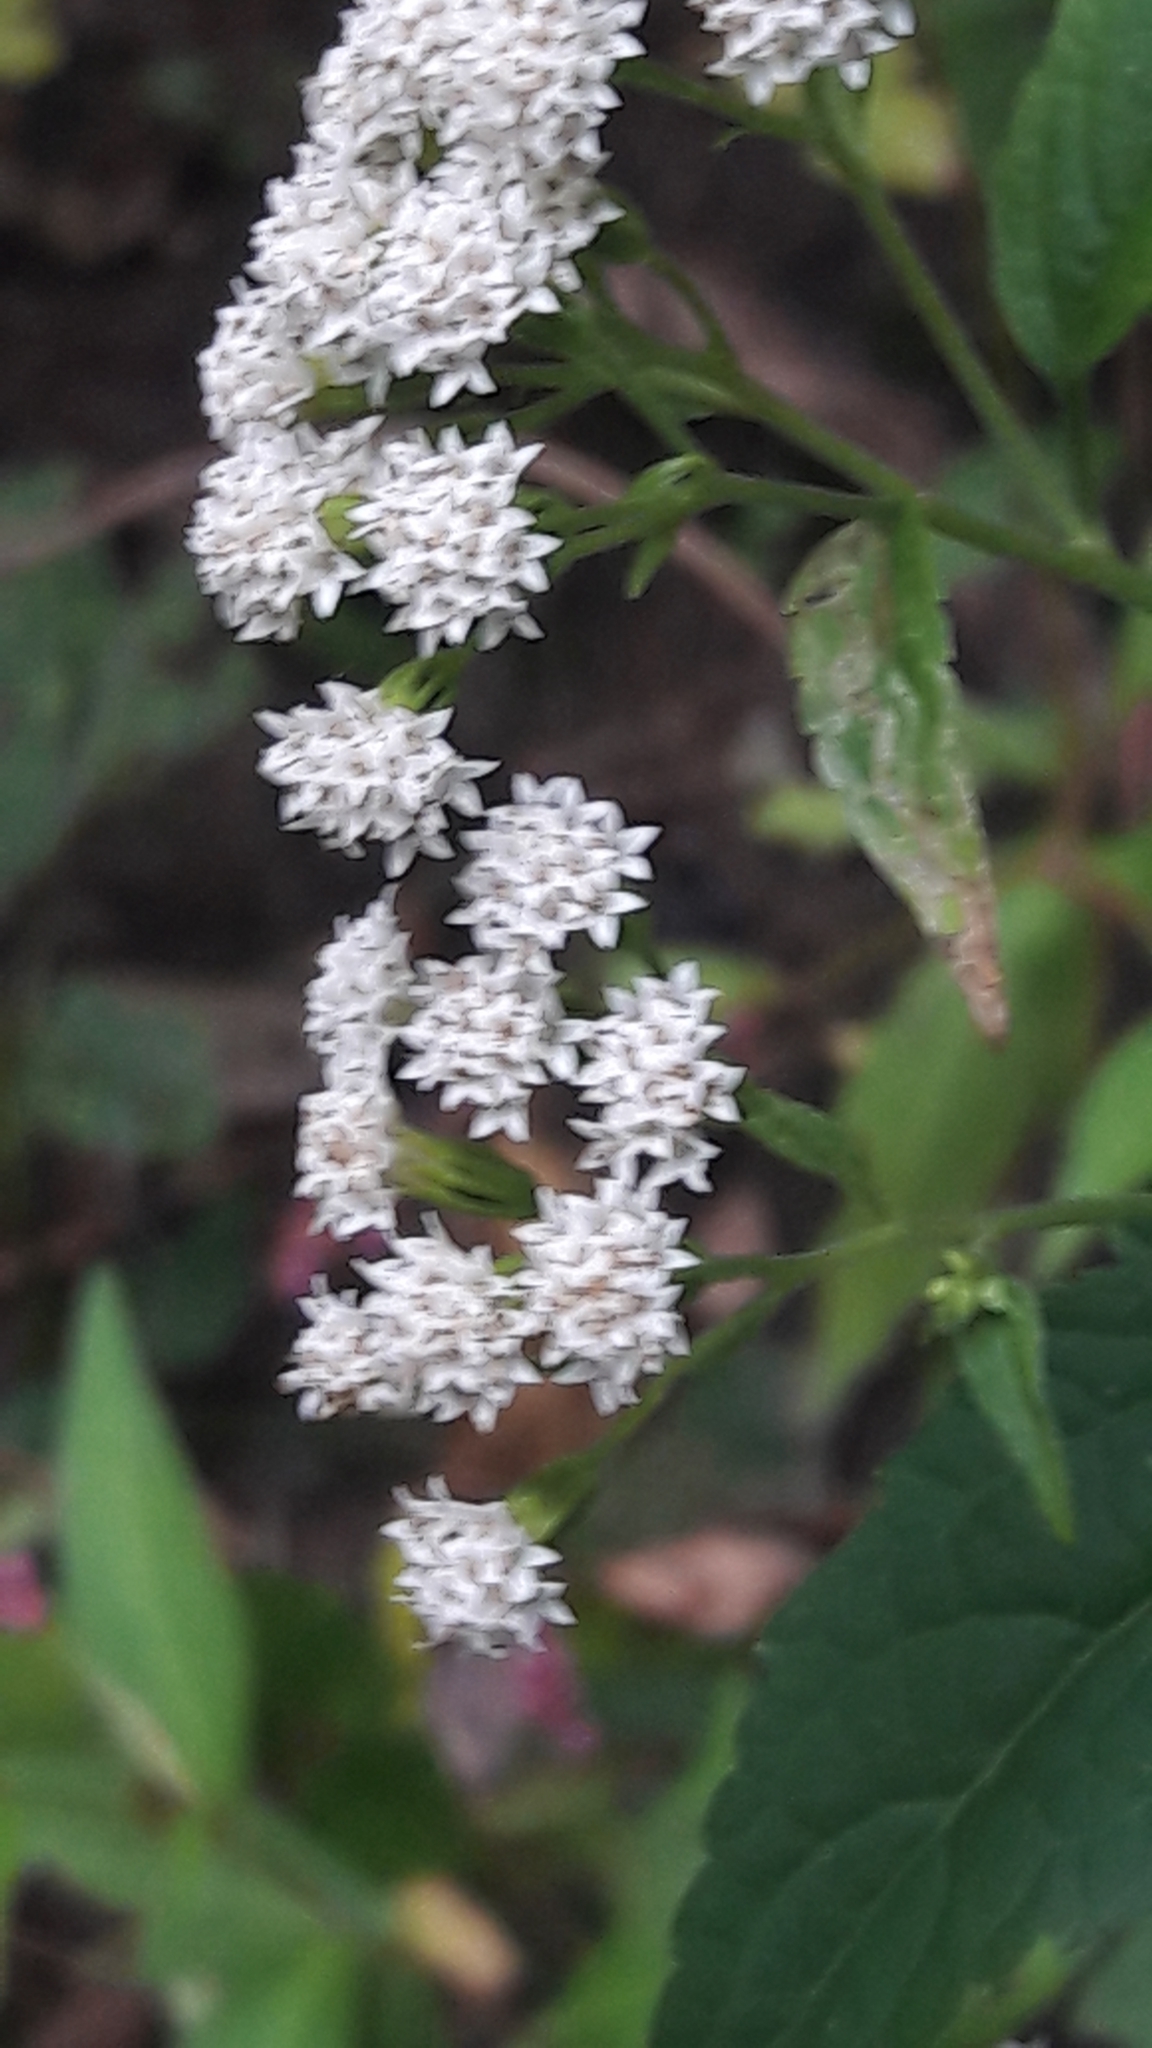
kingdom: Plantae
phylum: Tracheophyta
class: Magnoliopsida
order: Asterales
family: Asteraceae
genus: Ageratina
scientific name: Ageratina altissima
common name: White snakeroot
